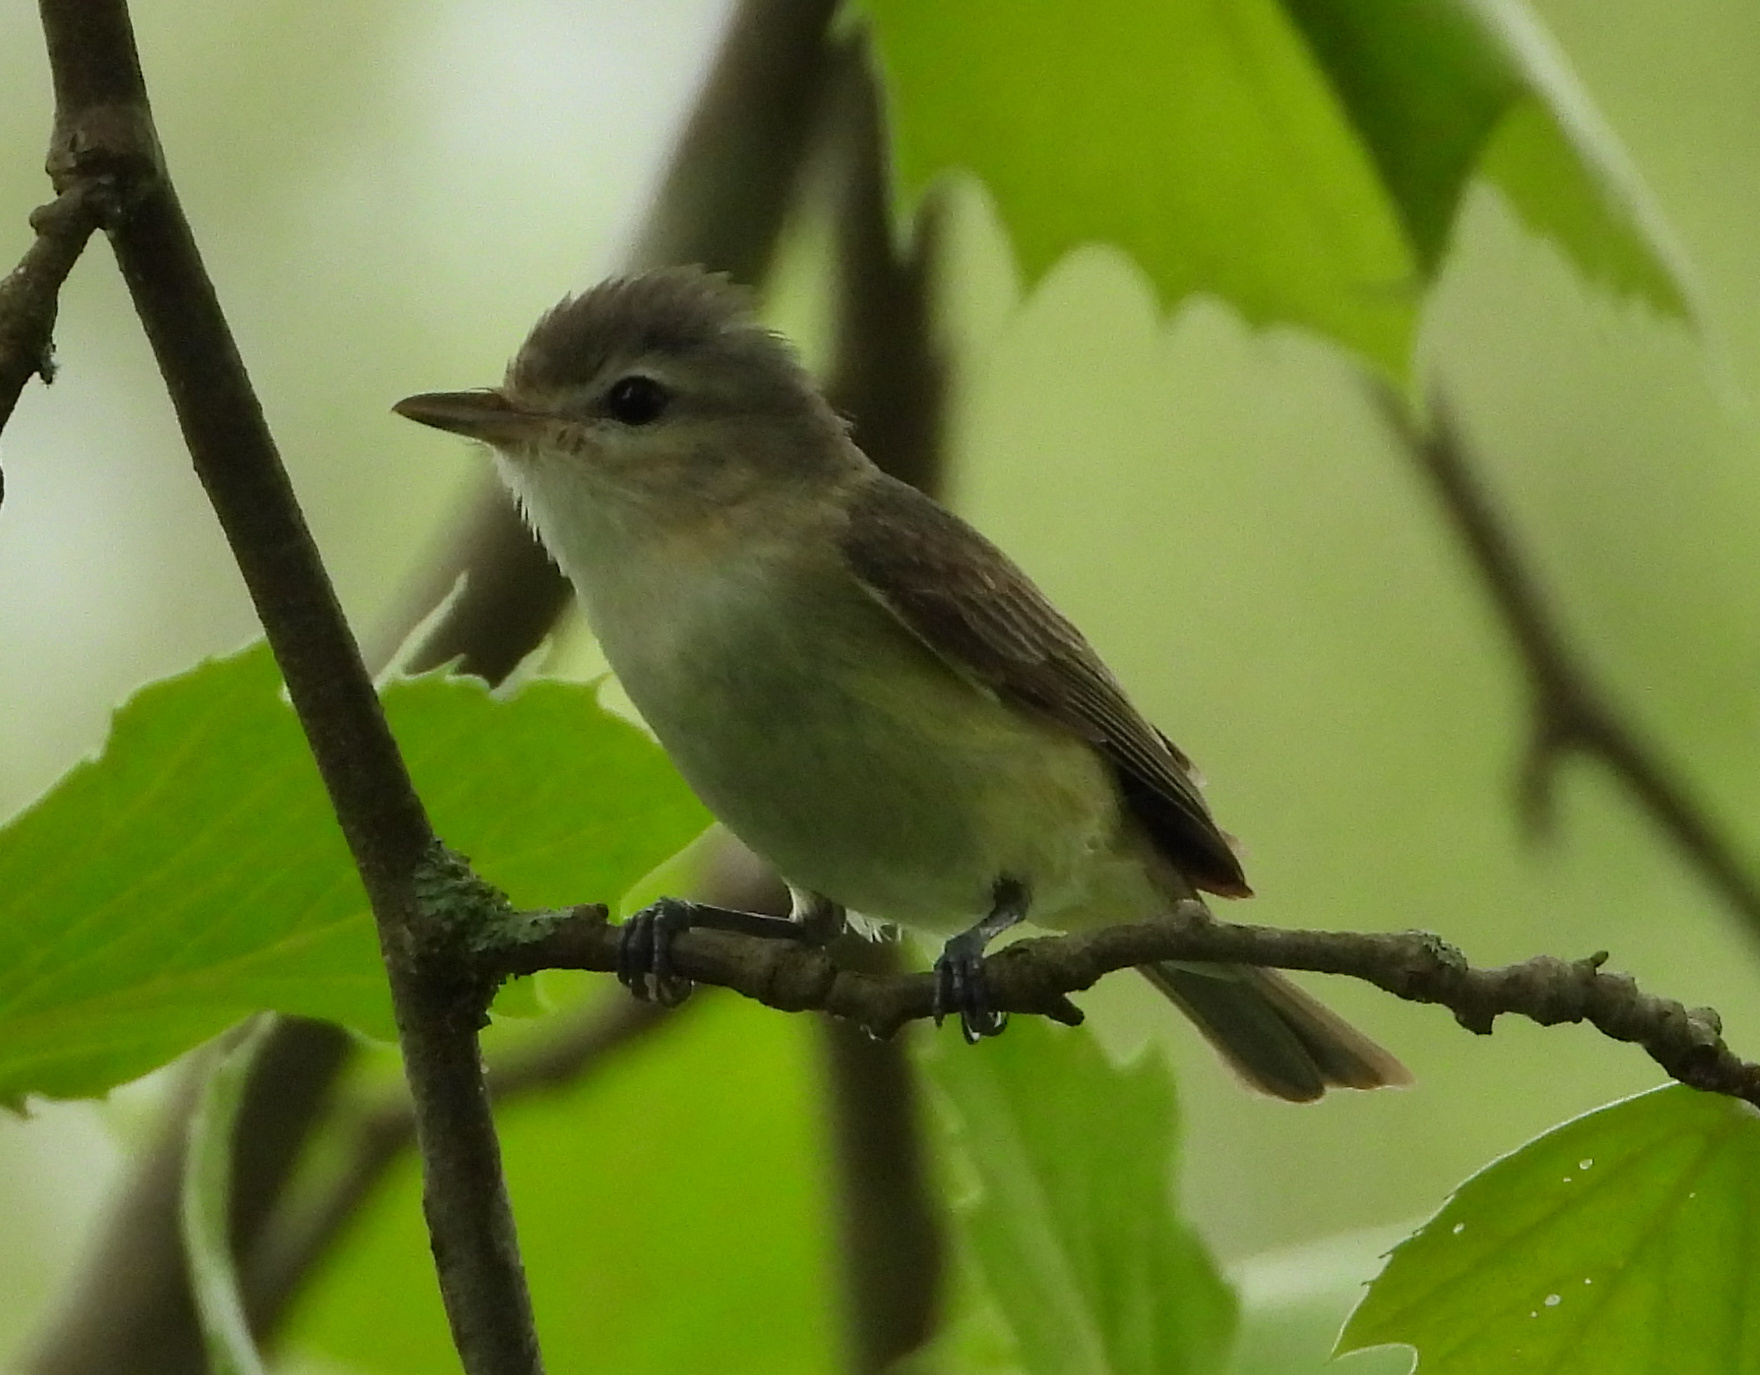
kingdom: Animalia
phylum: Chordata
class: Aves
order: Passeriformes
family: Vireonidae
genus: Vireo
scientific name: Vireo gilvus
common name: Warbling vireo
